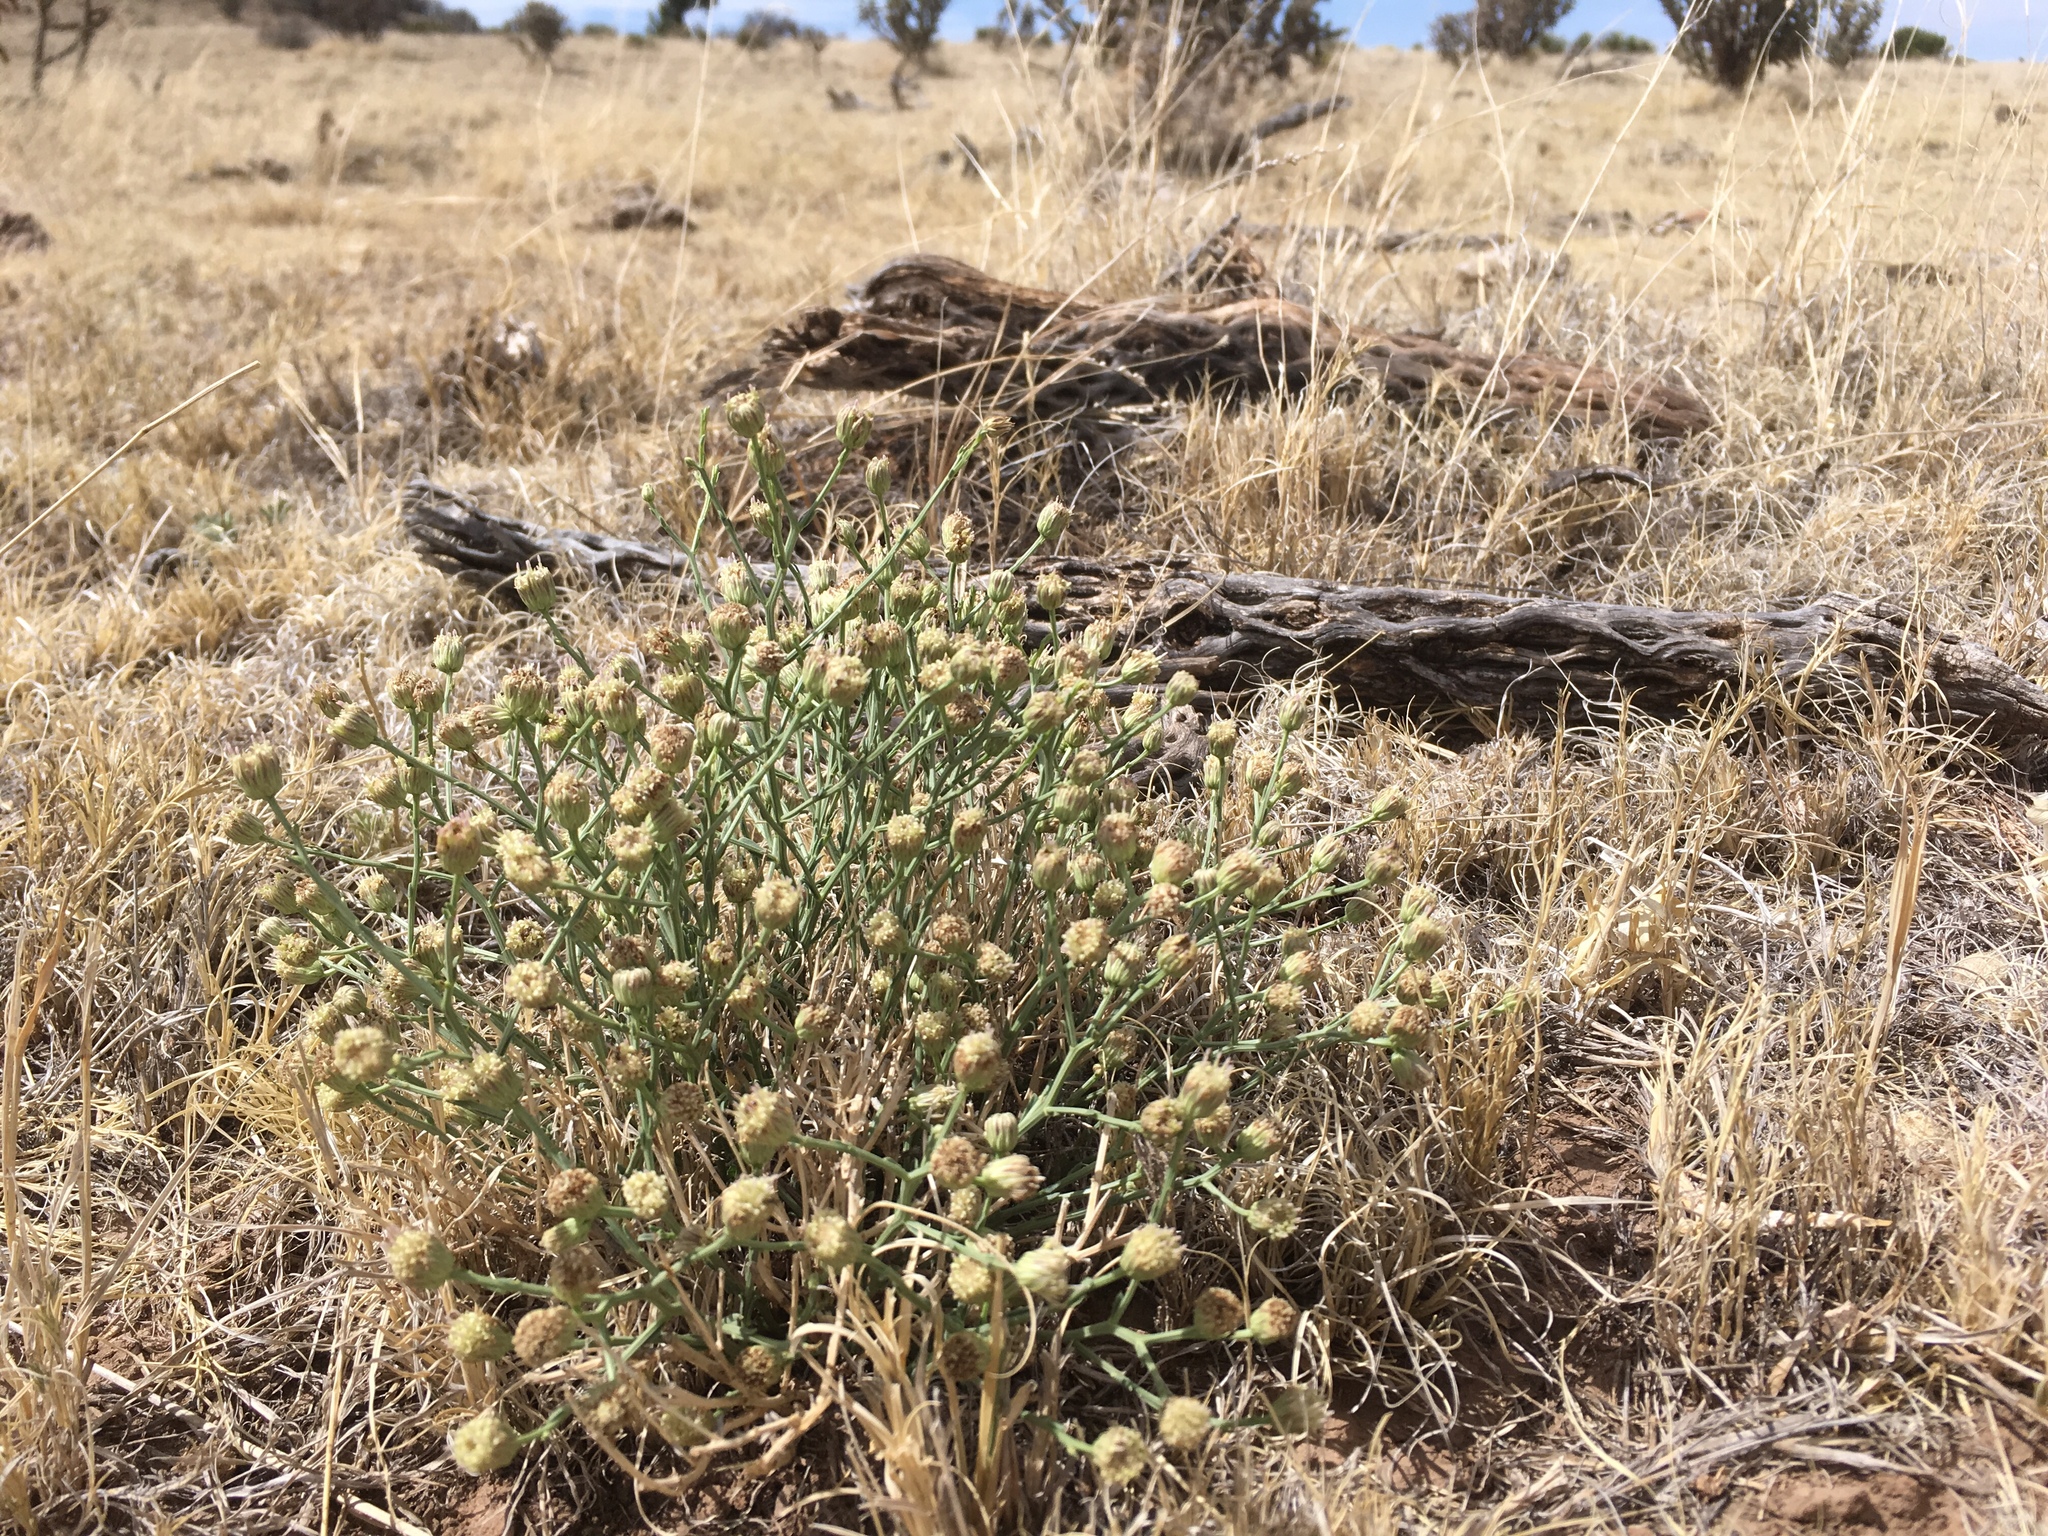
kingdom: Plantae
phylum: Tracheophyta
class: Magnoliopsida
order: Asterales
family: Asteraceae
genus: Baccharis
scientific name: Baccharis wrightii
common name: Wright's baccharis
